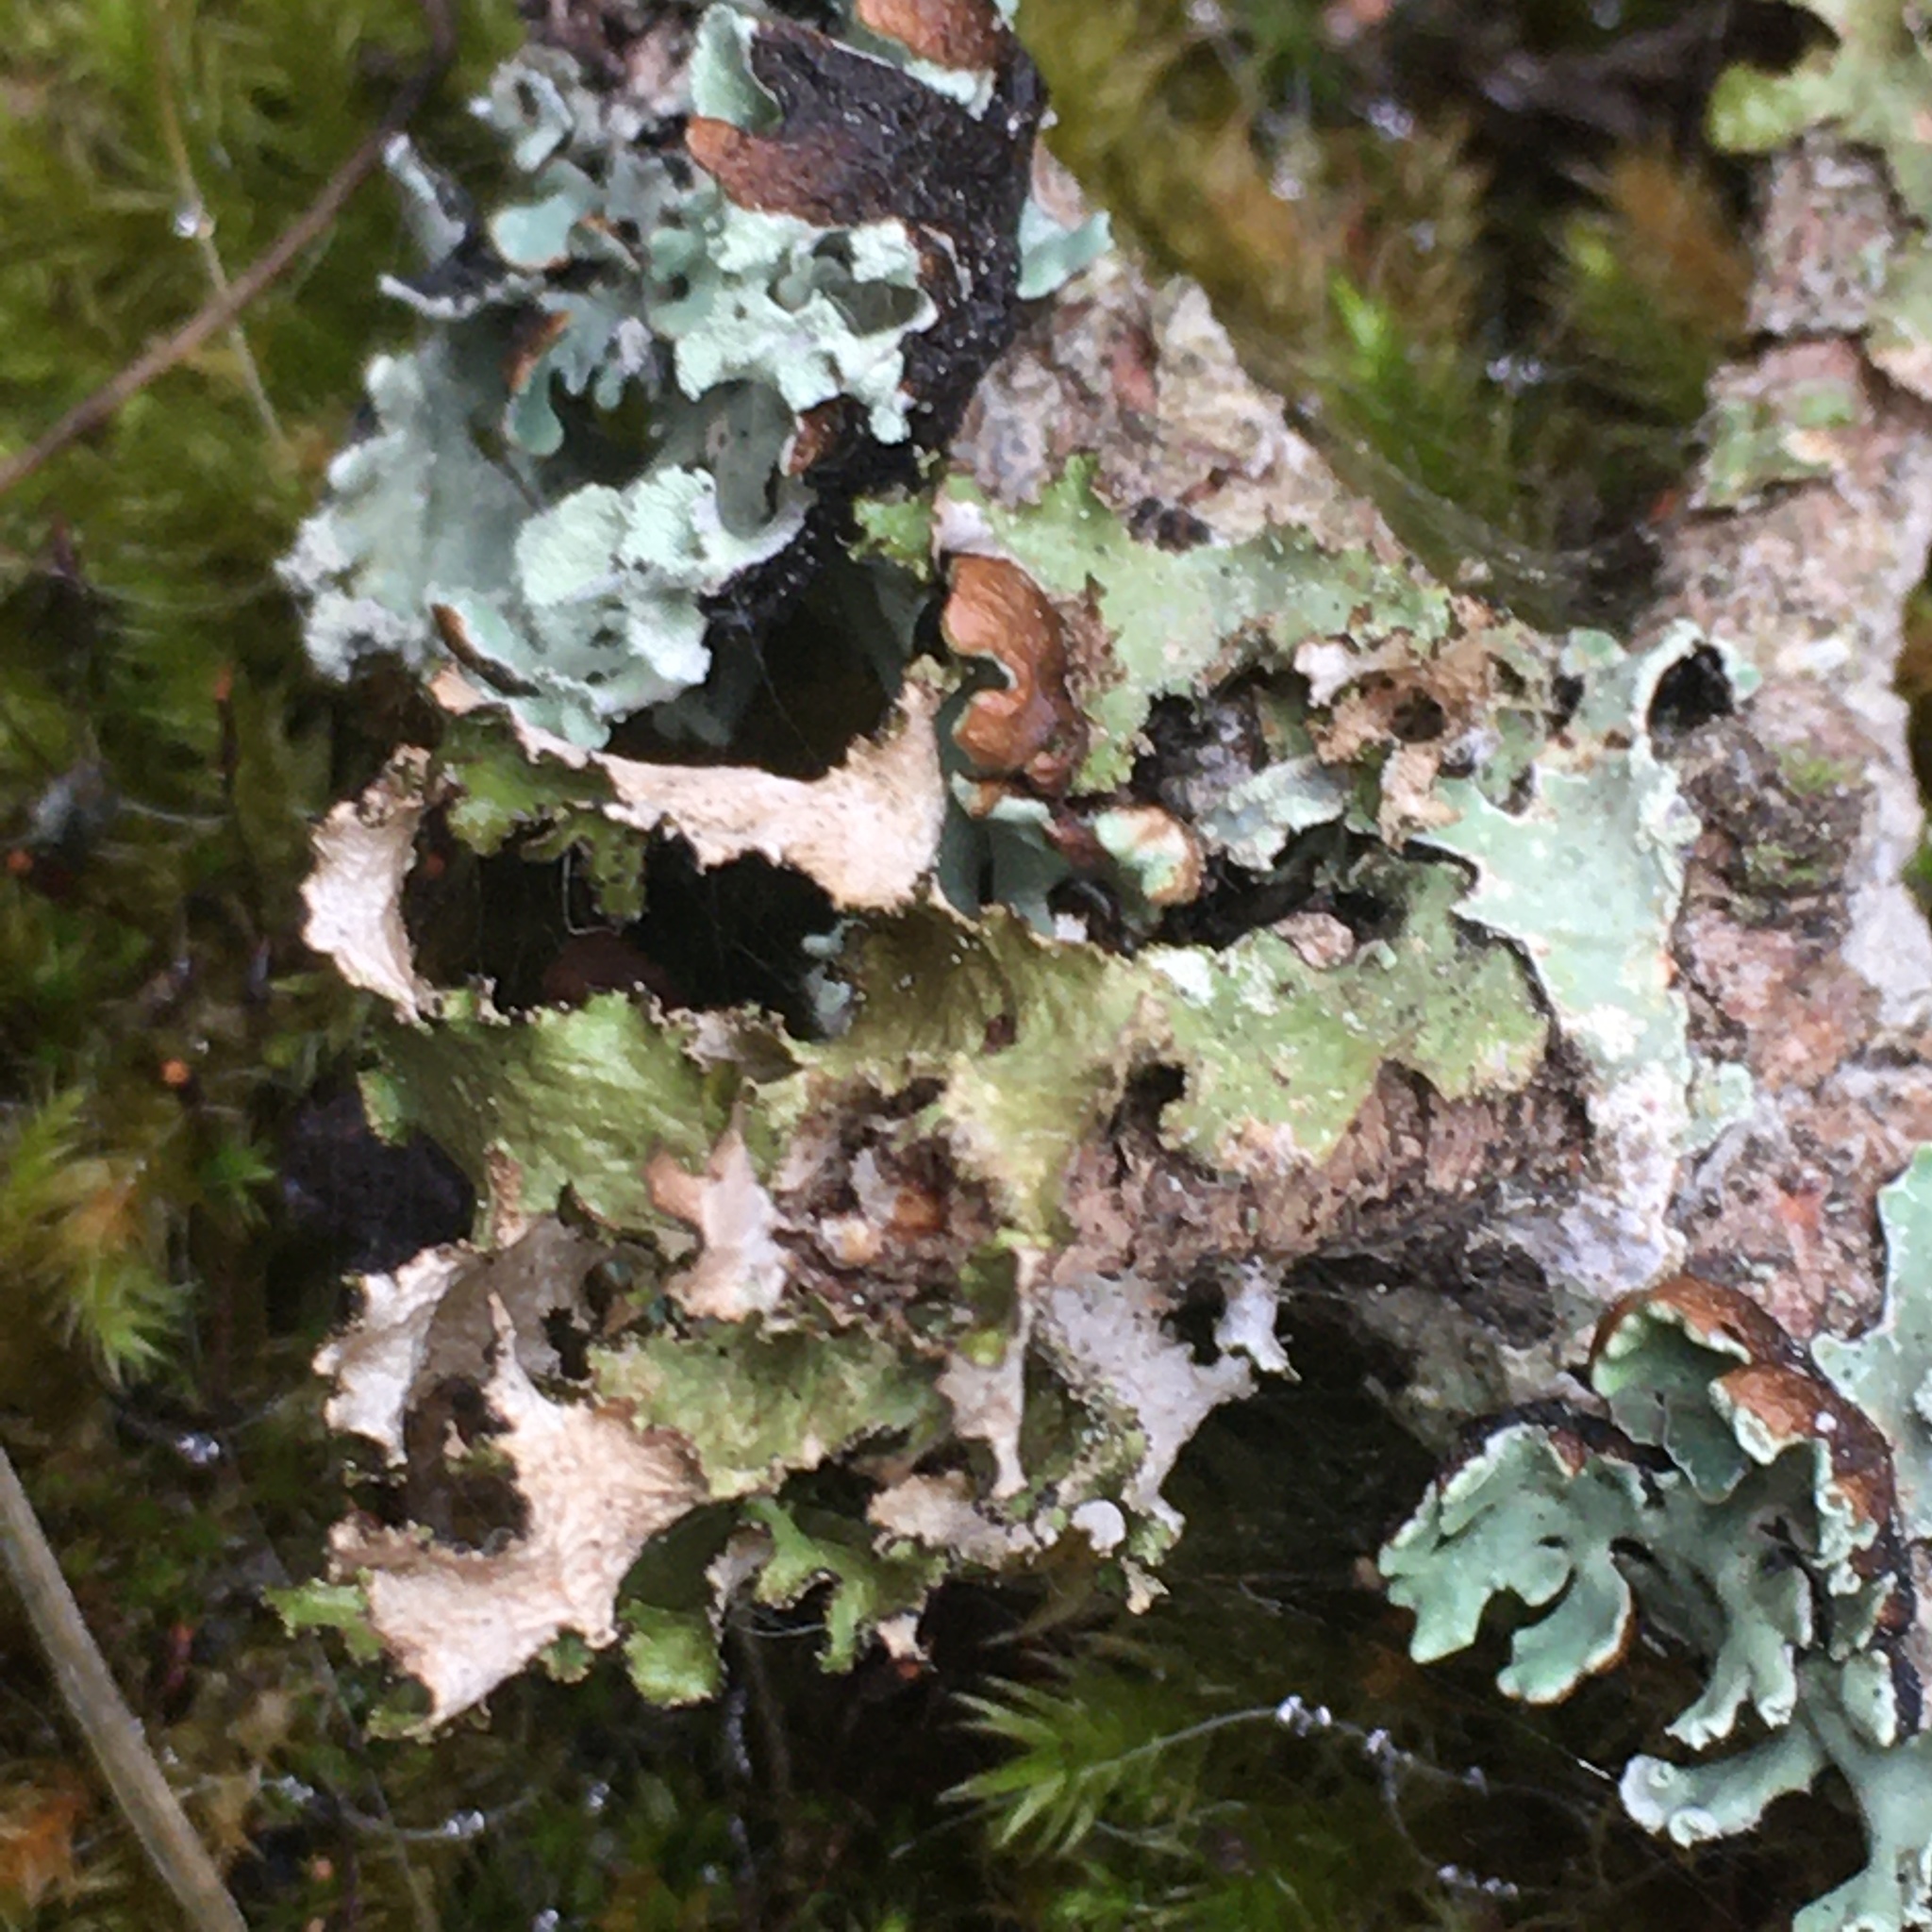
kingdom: Fungi
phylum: Ascomycota
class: Lecanoromycetes
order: Lecanorales
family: Parmeliaceae
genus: Nephromopsis
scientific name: Nephromopsis orbata
